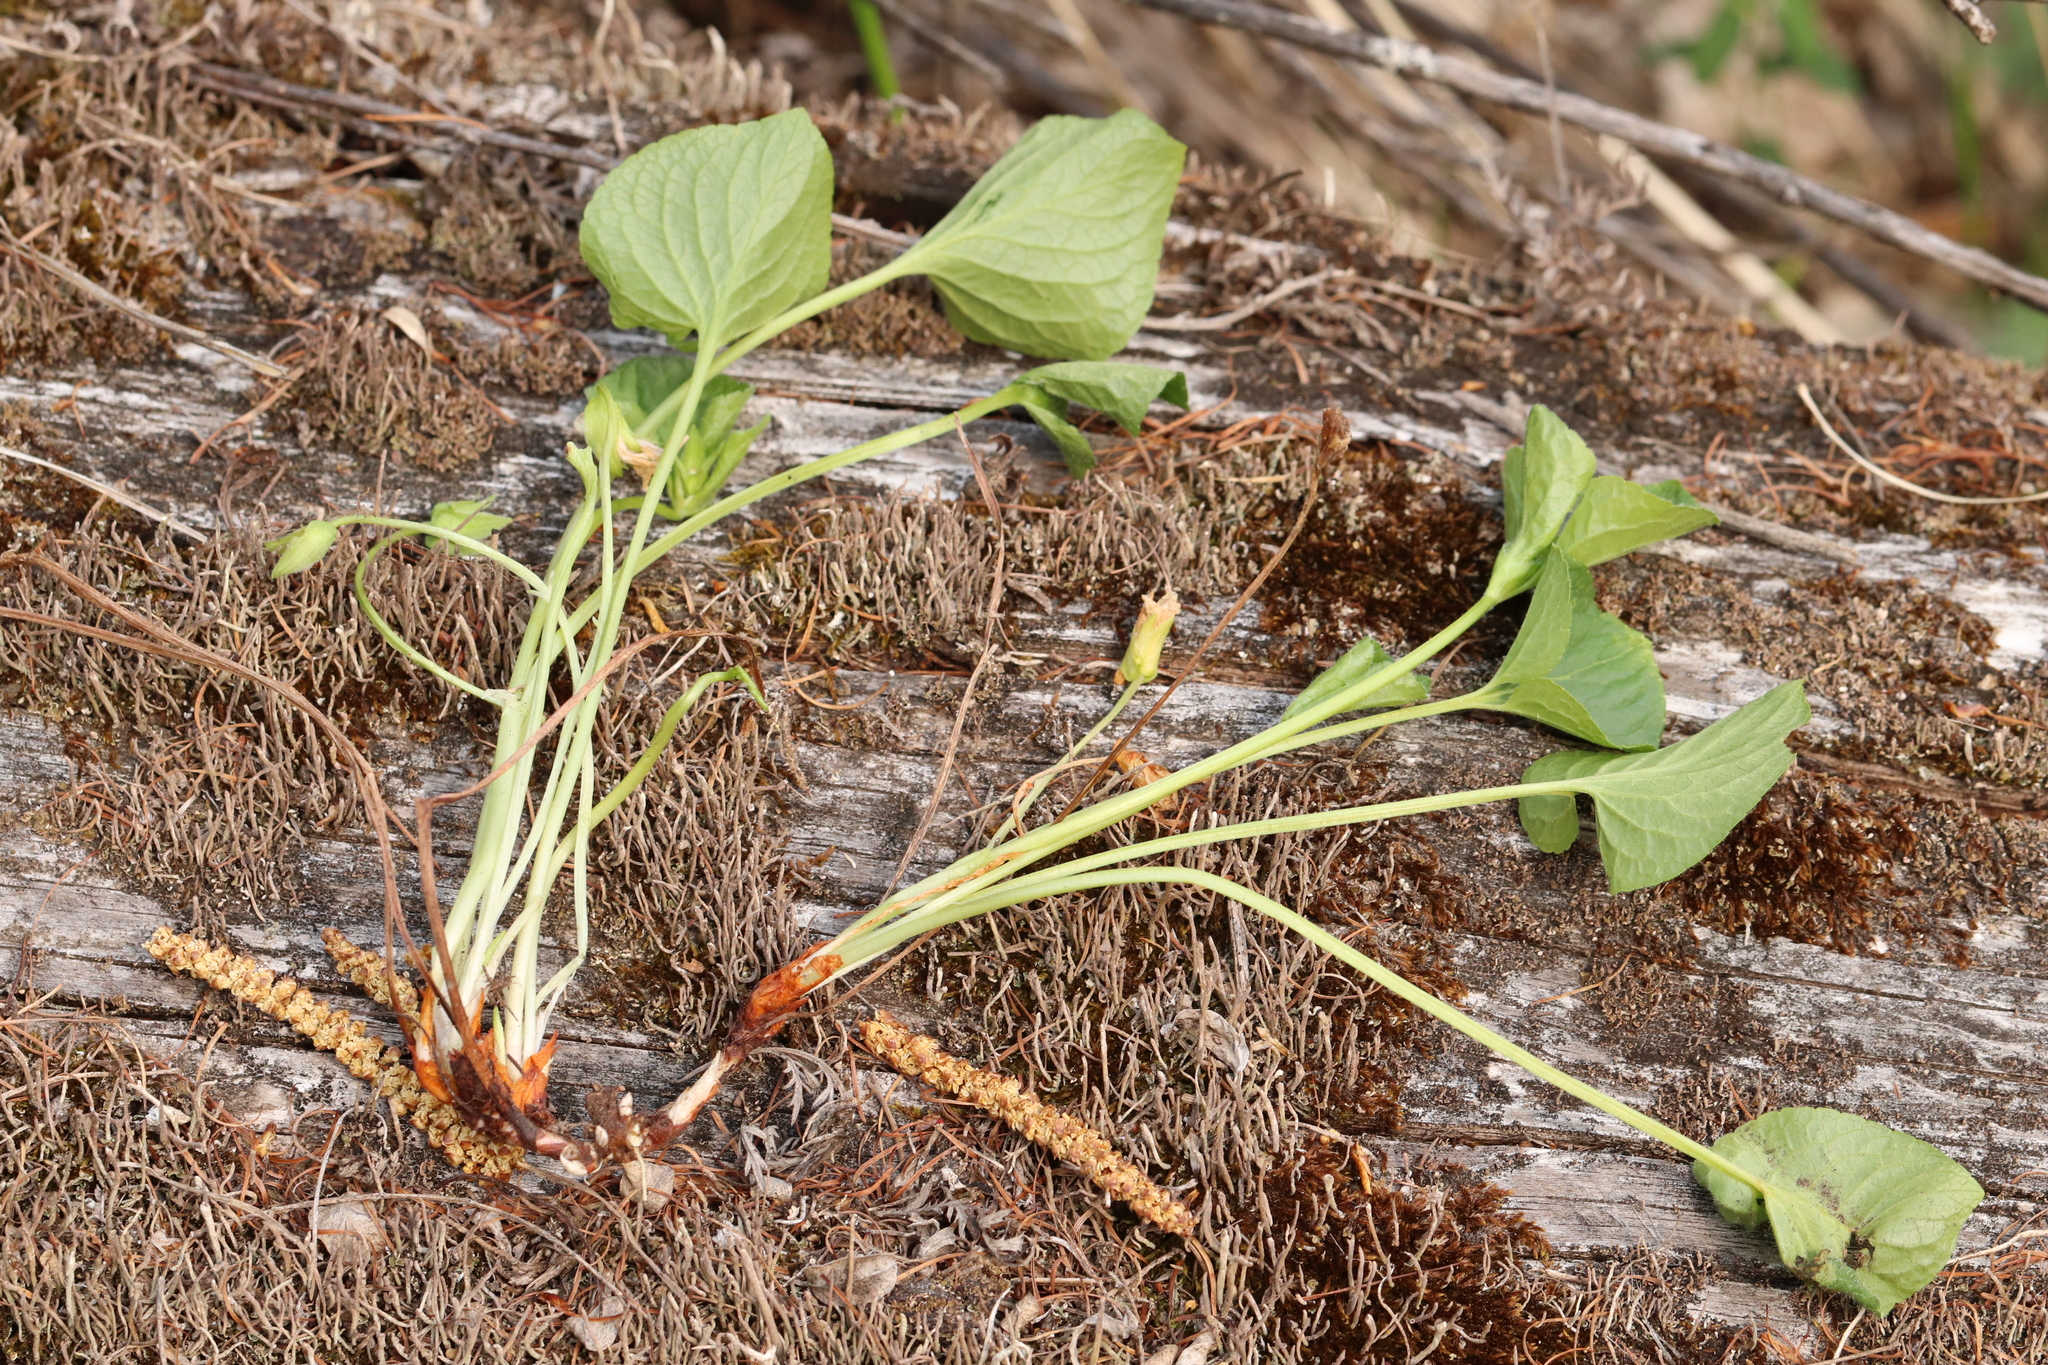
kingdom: Plantae
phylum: Tracheophyta
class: Magnoliopsida
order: Malpighiales
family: Violaceae
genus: Viola
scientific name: Viola mirabilis
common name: Wonder violet
